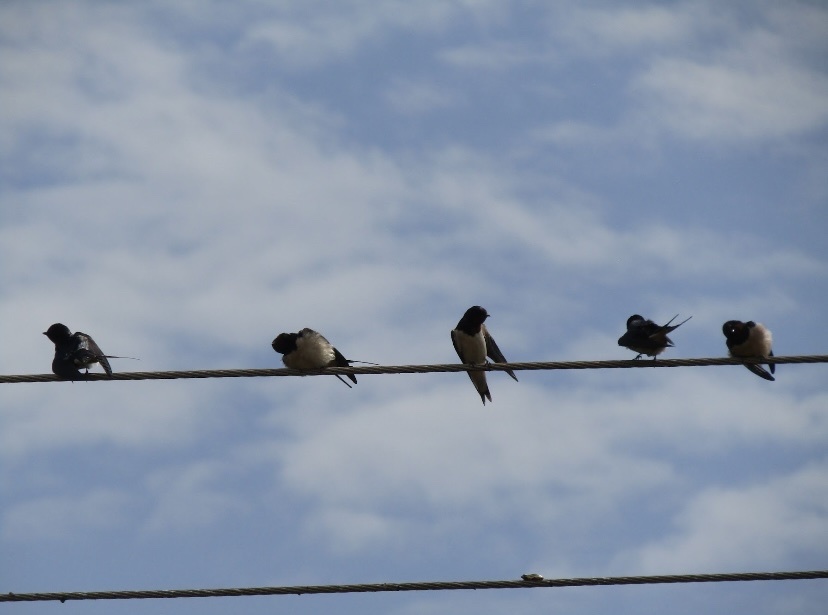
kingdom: Animalia
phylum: Chordata
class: Aves
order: Passeriformes
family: Hirundinidae
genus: Hirundo
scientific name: Hirundo rustica
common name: Barn swallow
